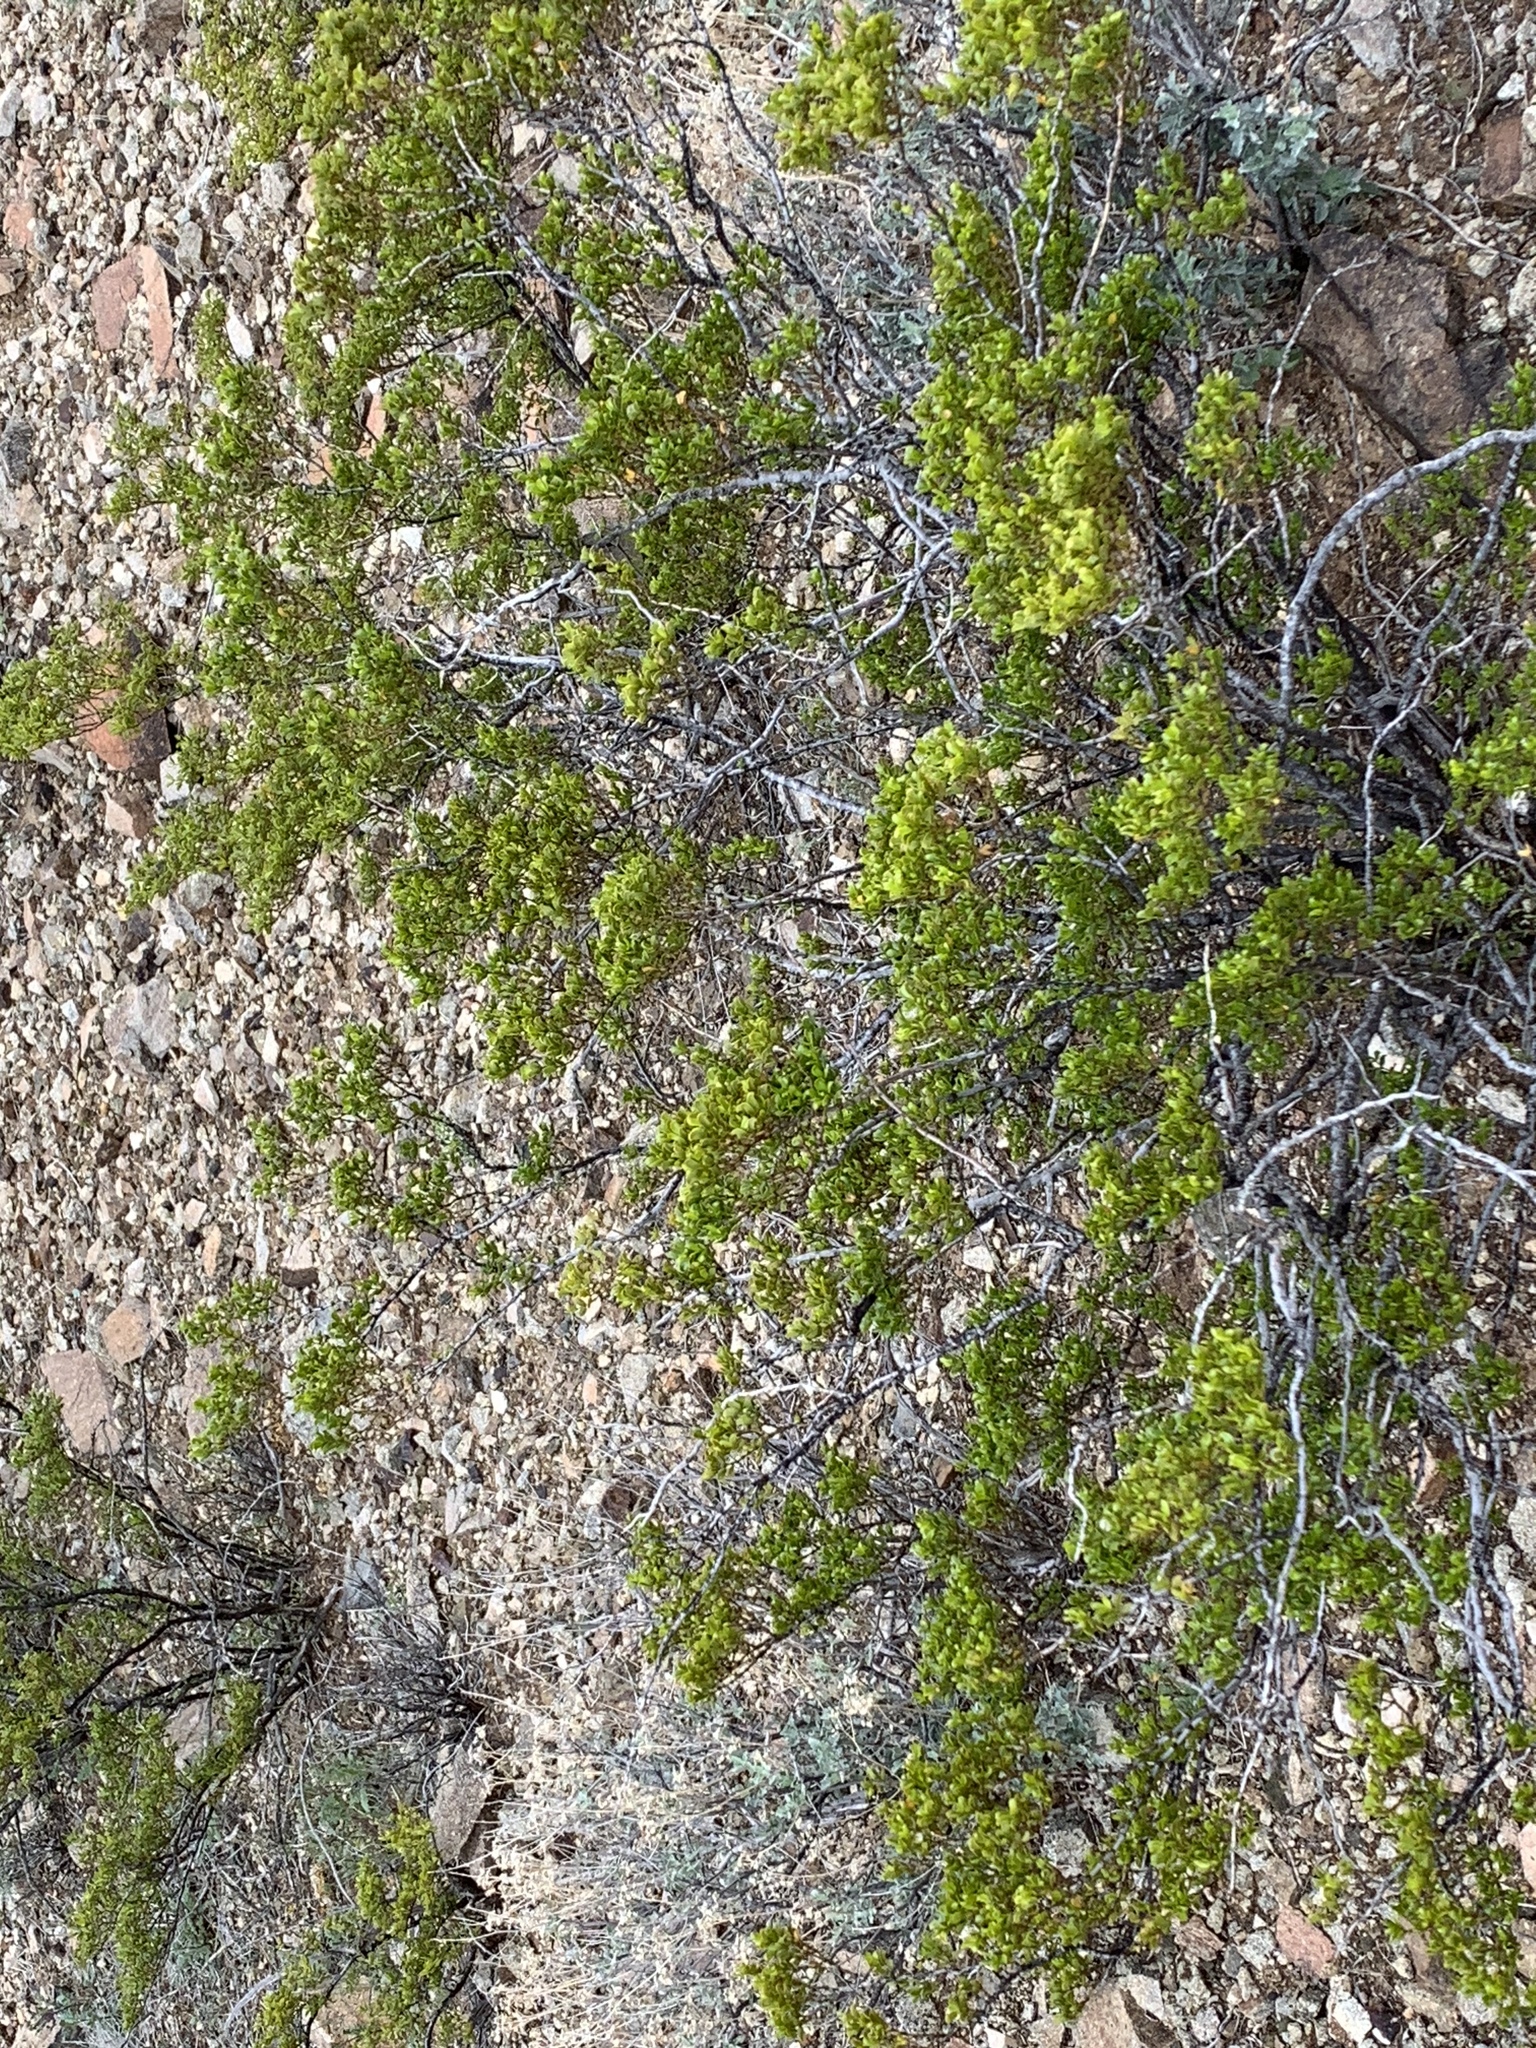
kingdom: Plantae
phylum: Tracheophyta
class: Magnoliopsida
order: Zygophyllales
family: Zygophyllaceae
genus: Larrea
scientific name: Larrea tridentata
